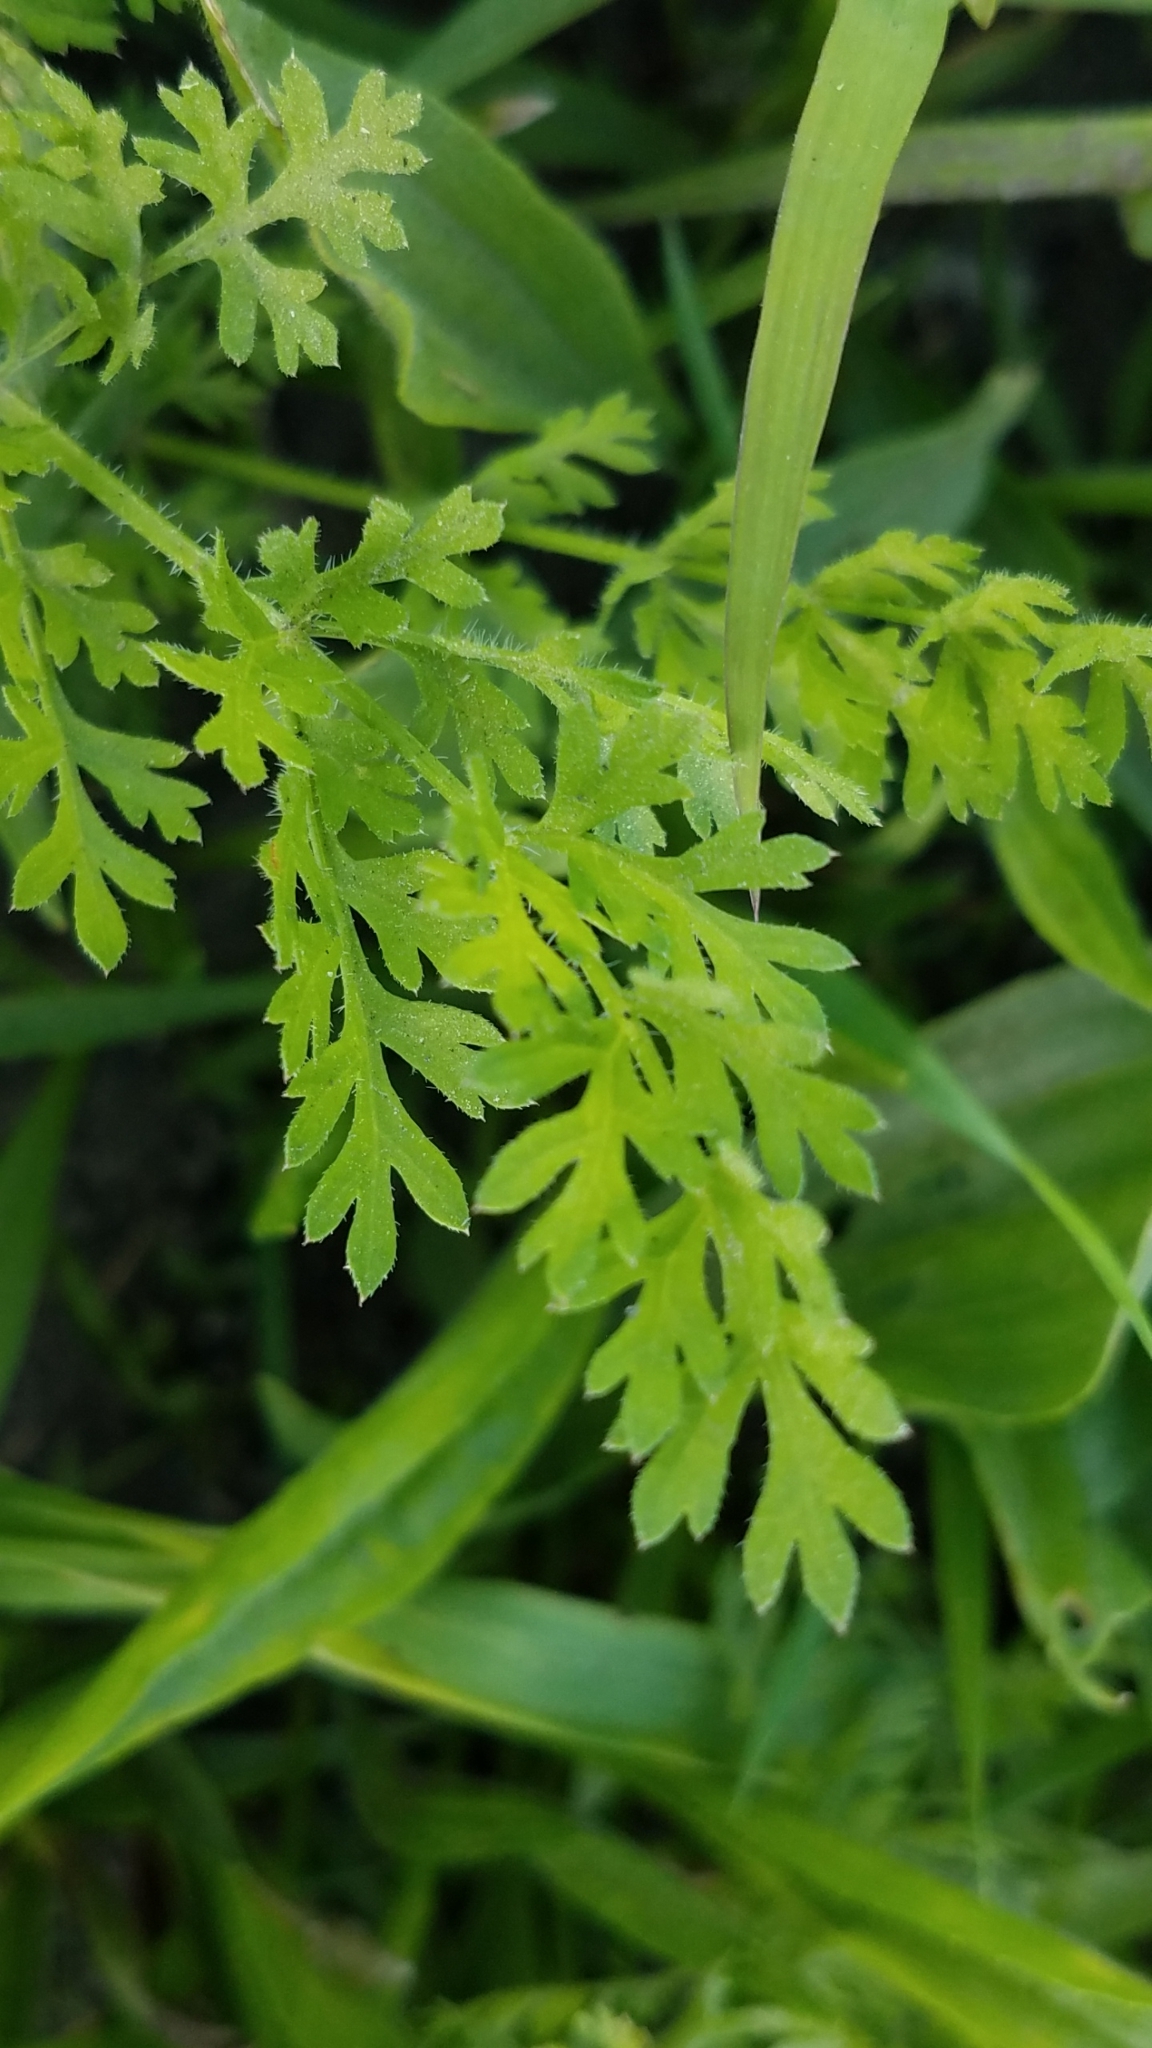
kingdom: Plantae
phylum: Tracheophyta
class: Magnoliopsida
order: Apiales
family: Apiaceae
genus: Chaerophyllum
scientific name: Chaerophyllum tainturieri
